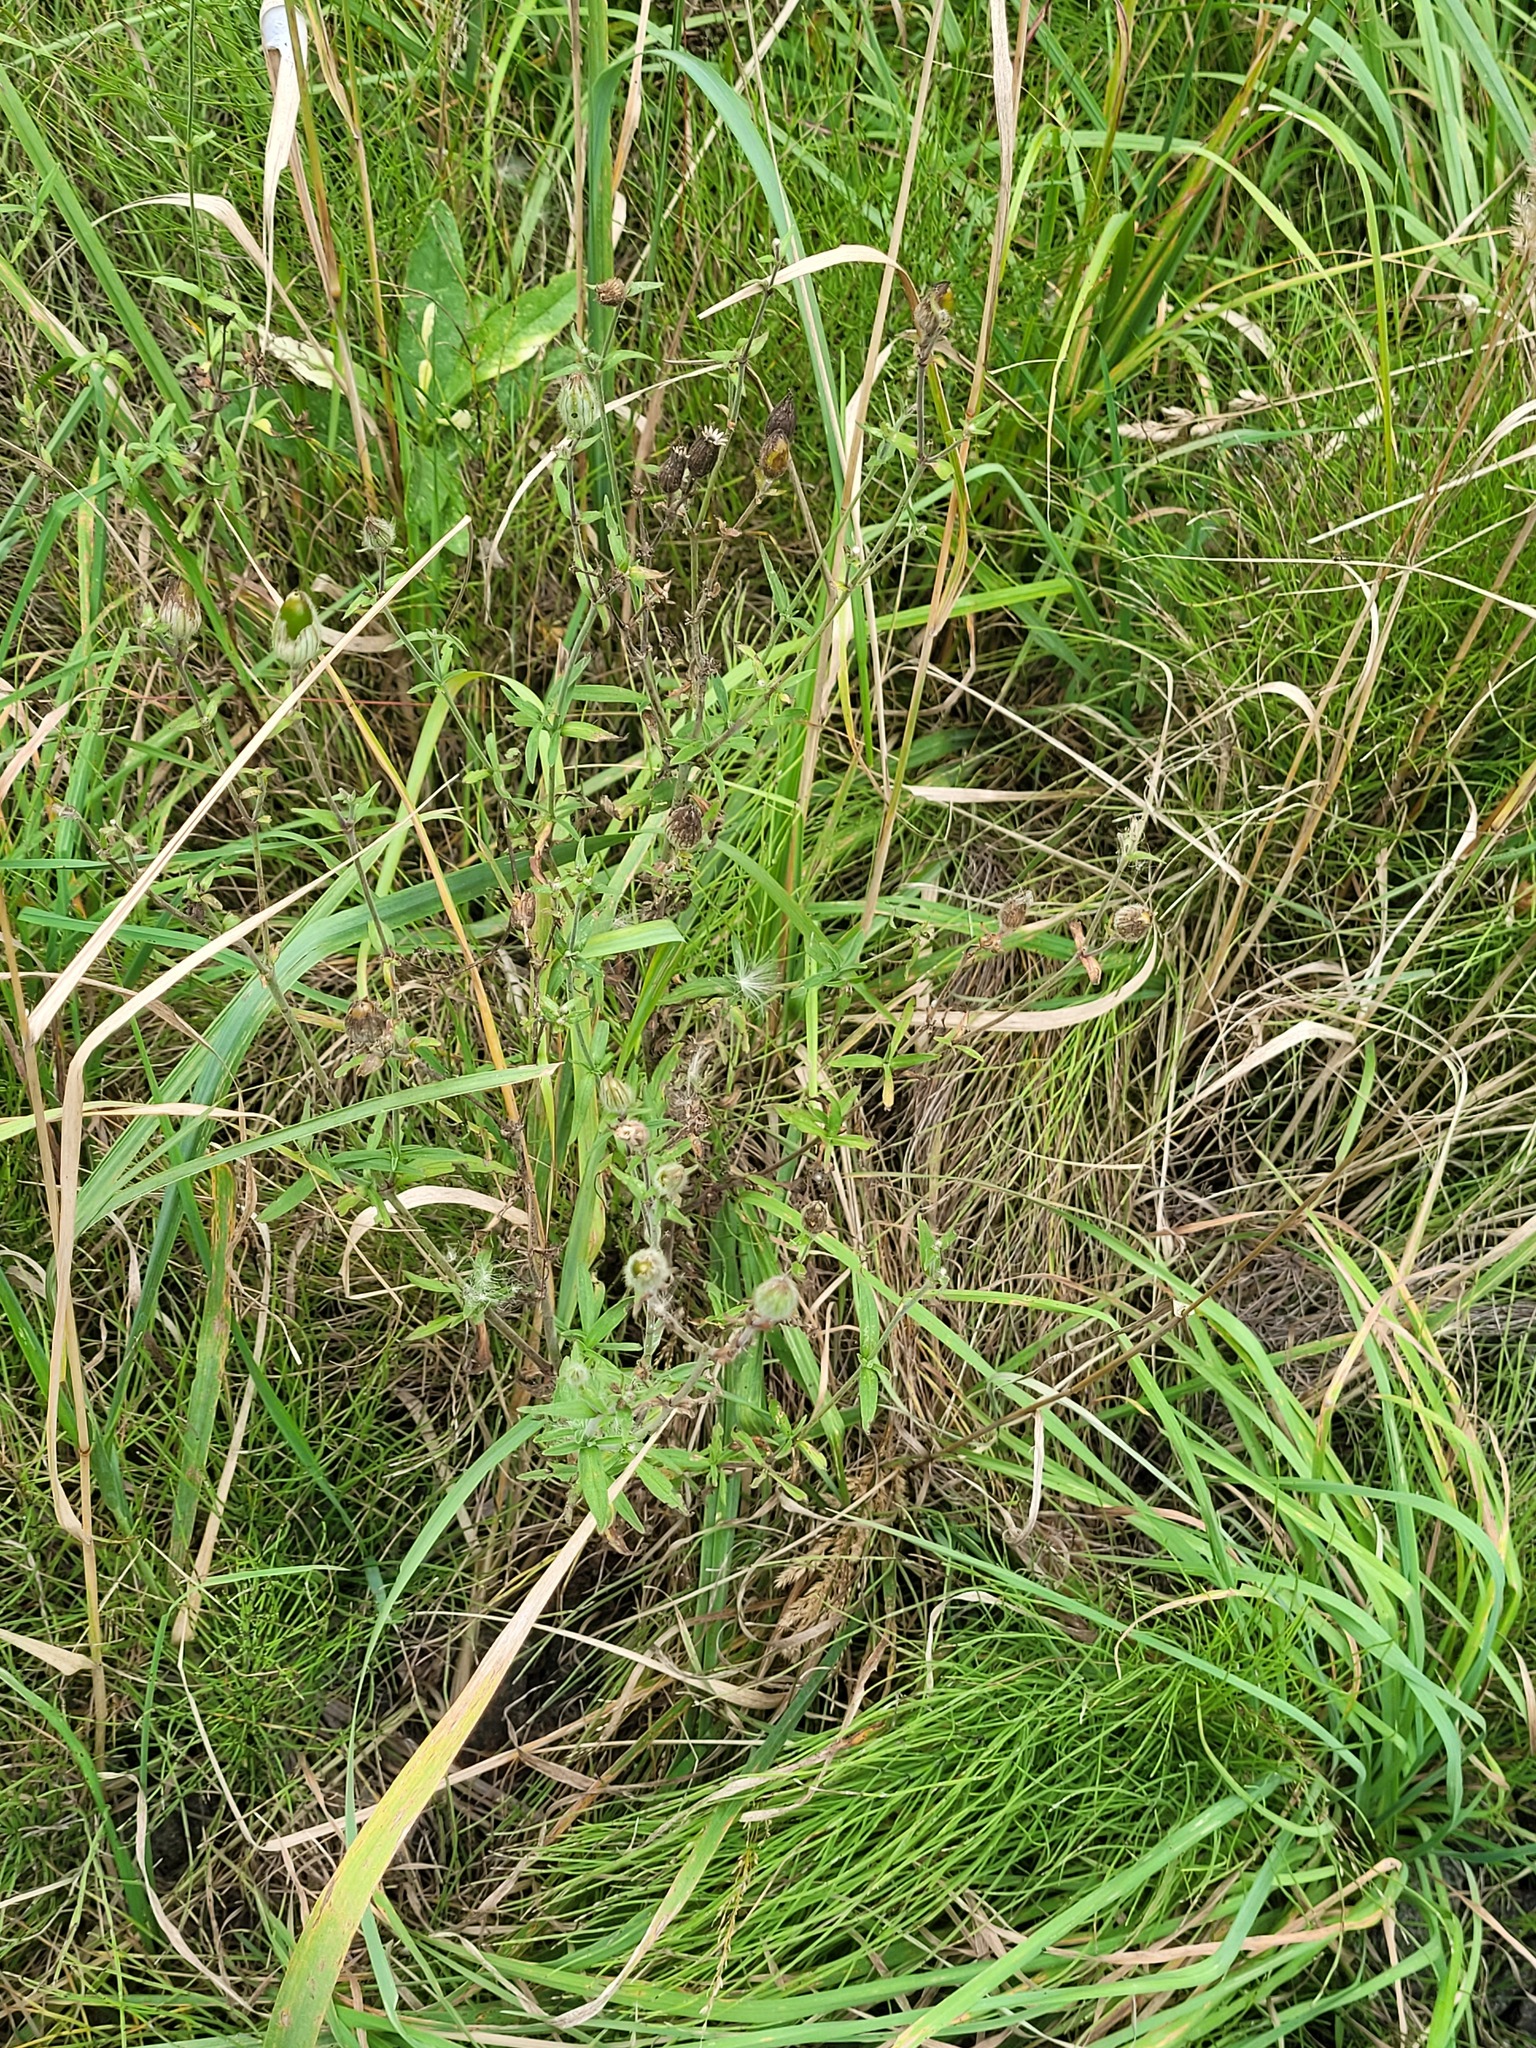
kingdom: Plantae
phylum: Tracheophyta
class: Magnoliopsida
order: Caryophyllales
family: Caryophyllaceae
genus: Silene
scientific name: Silene latifolia
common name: White campion
